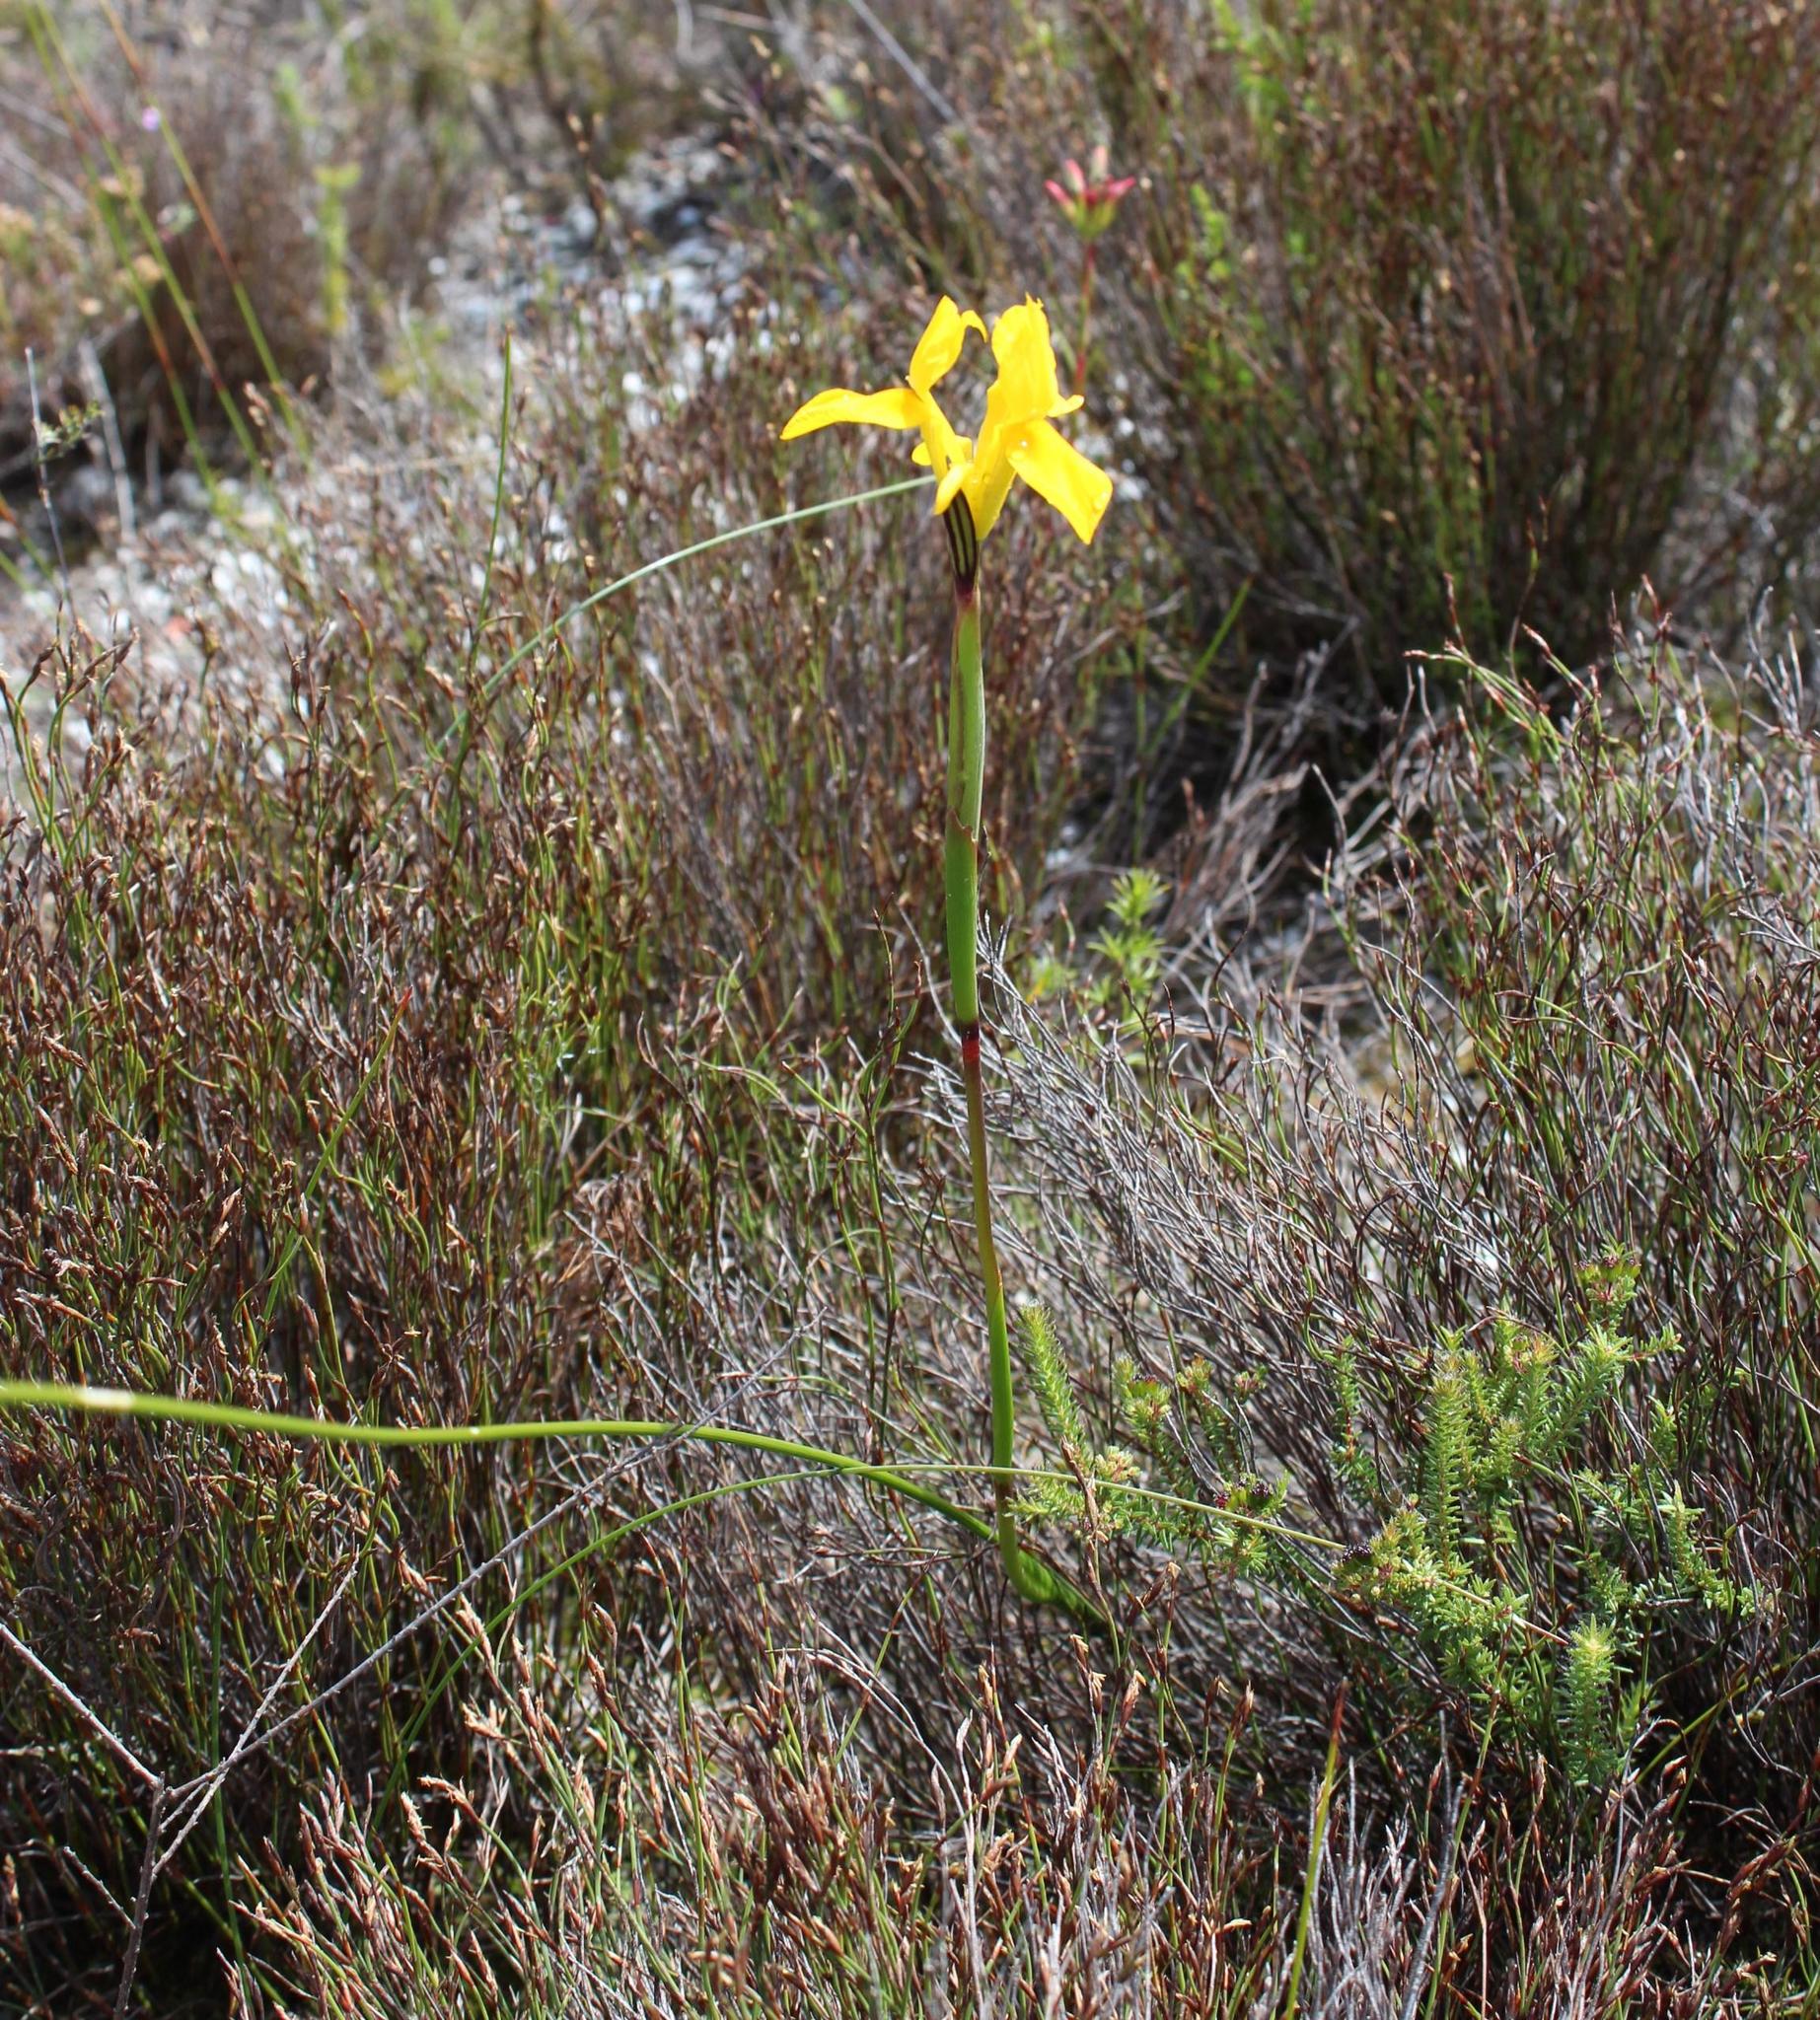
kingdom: Plantae
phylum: Tracheophyta
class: Liliopsida
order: Asparagales
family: Iridaceae
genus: Moraea
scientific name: Moraea neglecta
